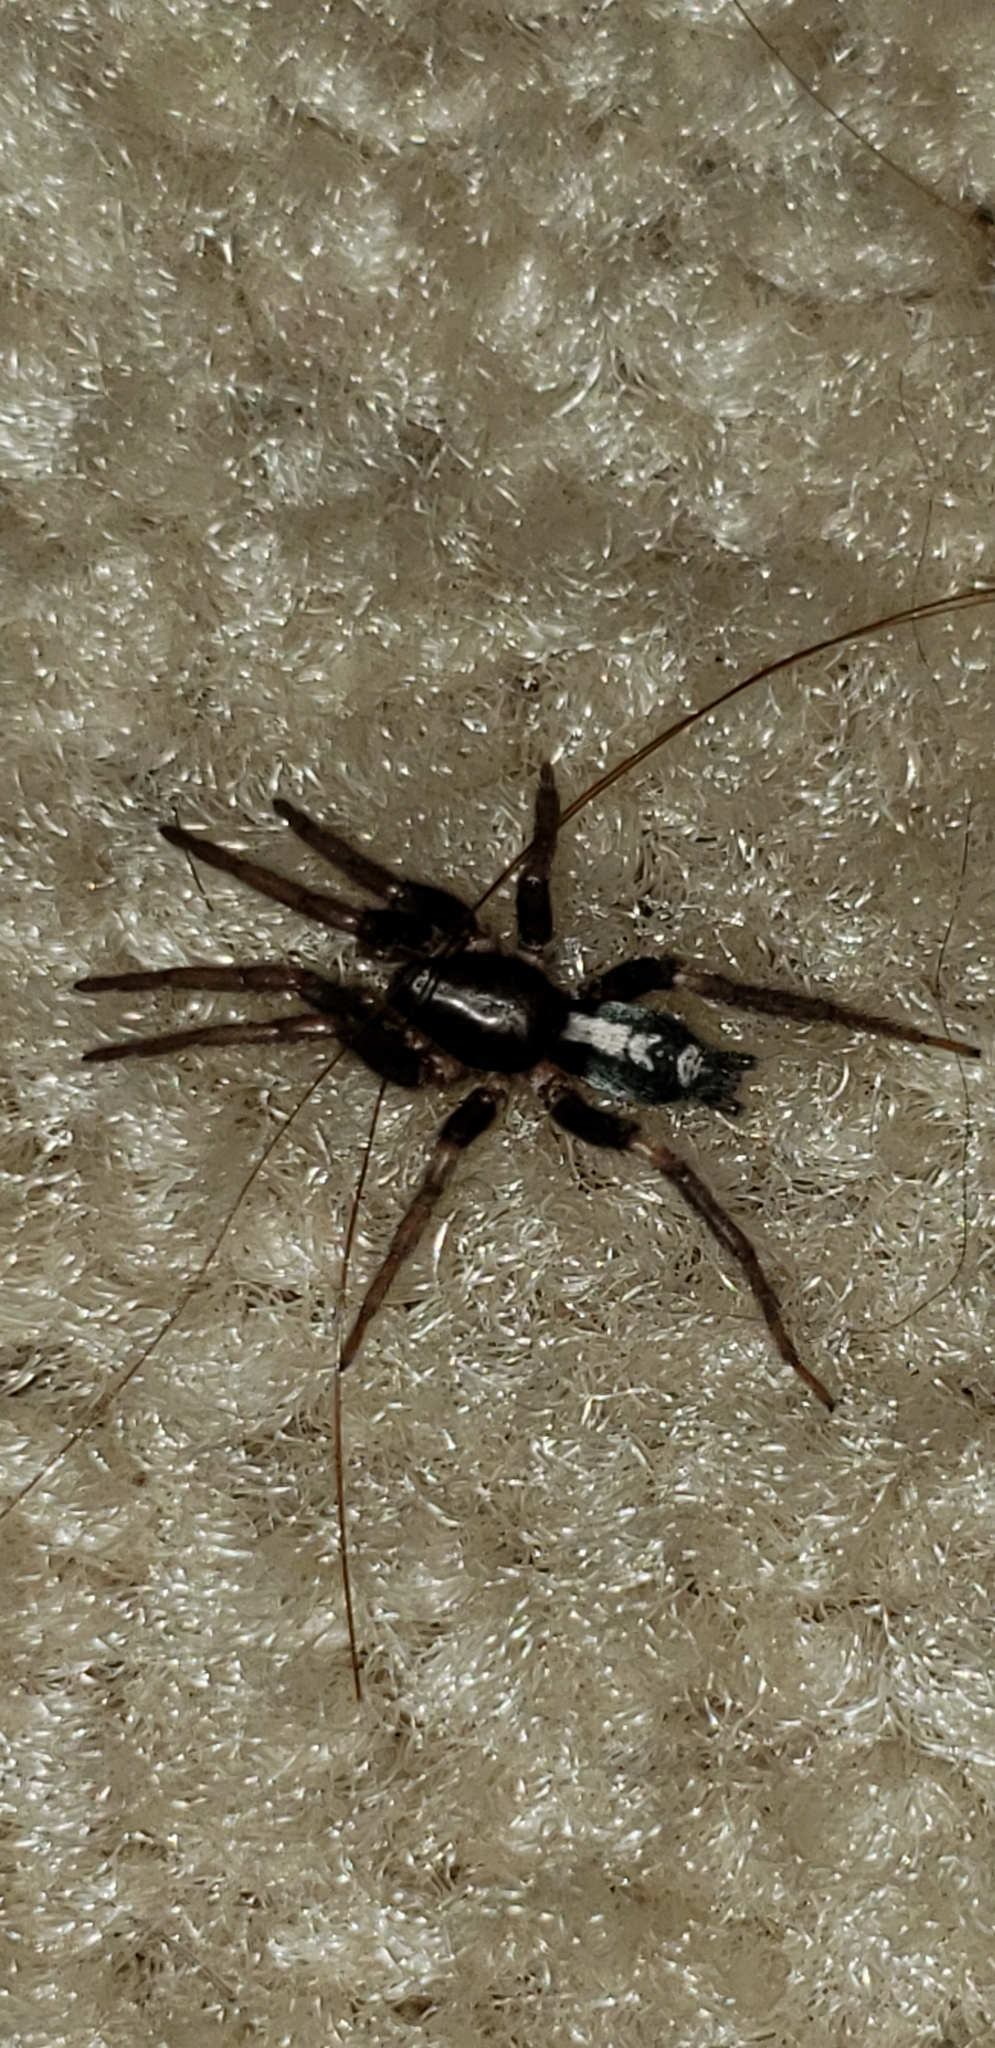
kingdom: Animalia
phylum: Arthropoda
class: Arachnida
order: Araneae
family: Gnaphosidae
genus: Herpyllus
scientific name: Herpyllus ecclesiasticus
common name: Eastern parson spider
